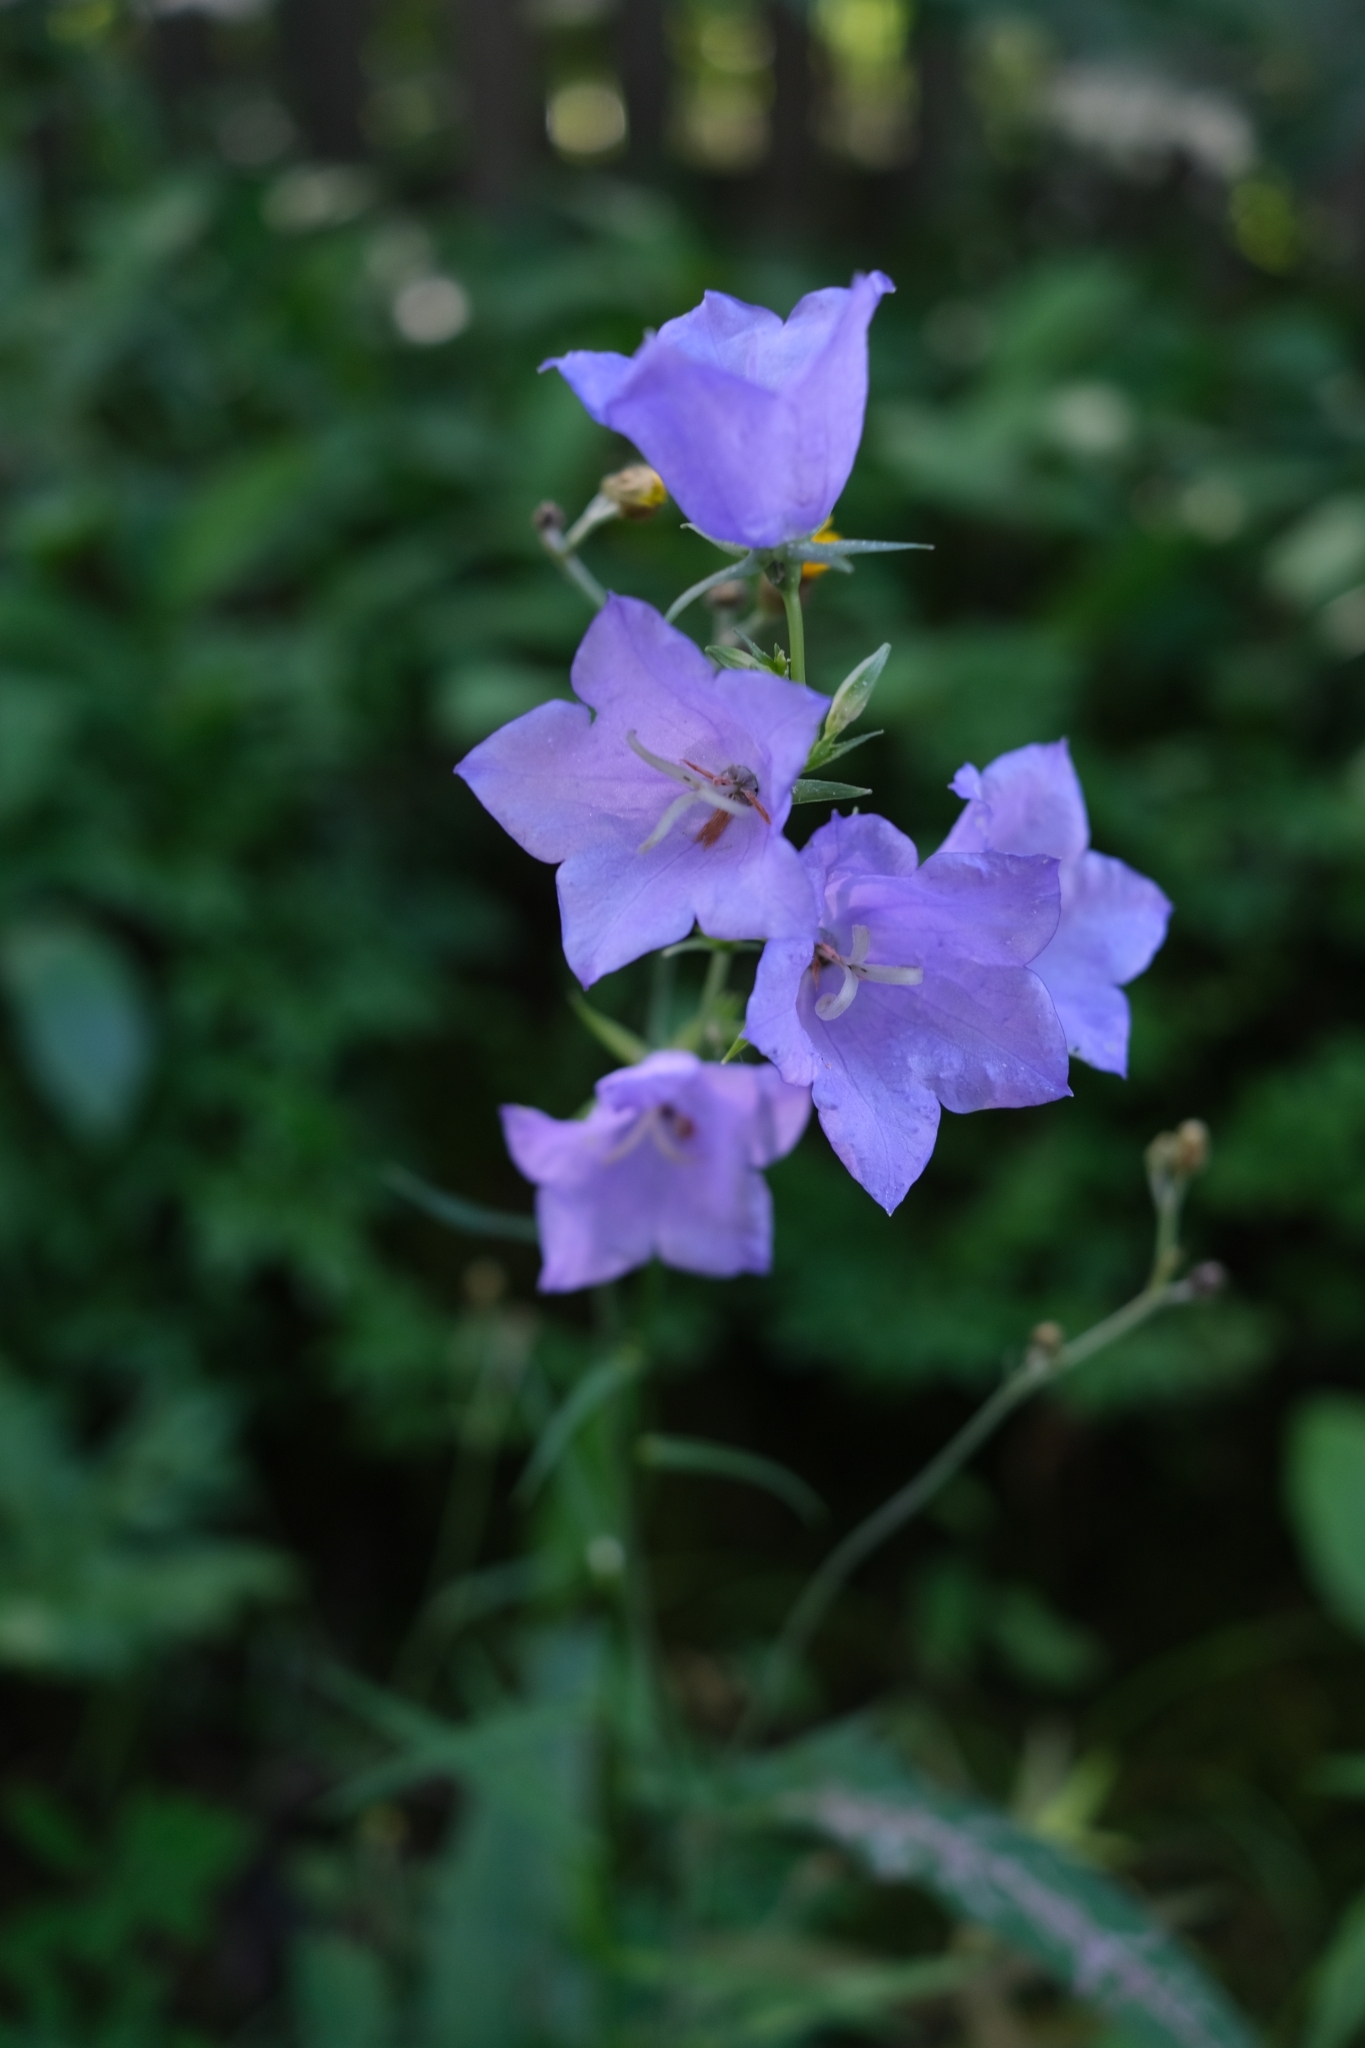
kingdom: Plantae
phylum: Tracheophyta
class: Magnoliopsida
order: Asterales
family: Campanulaceae
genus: Campanula
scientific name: Campanula persicifolia
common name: Peach-leaved bellflower
